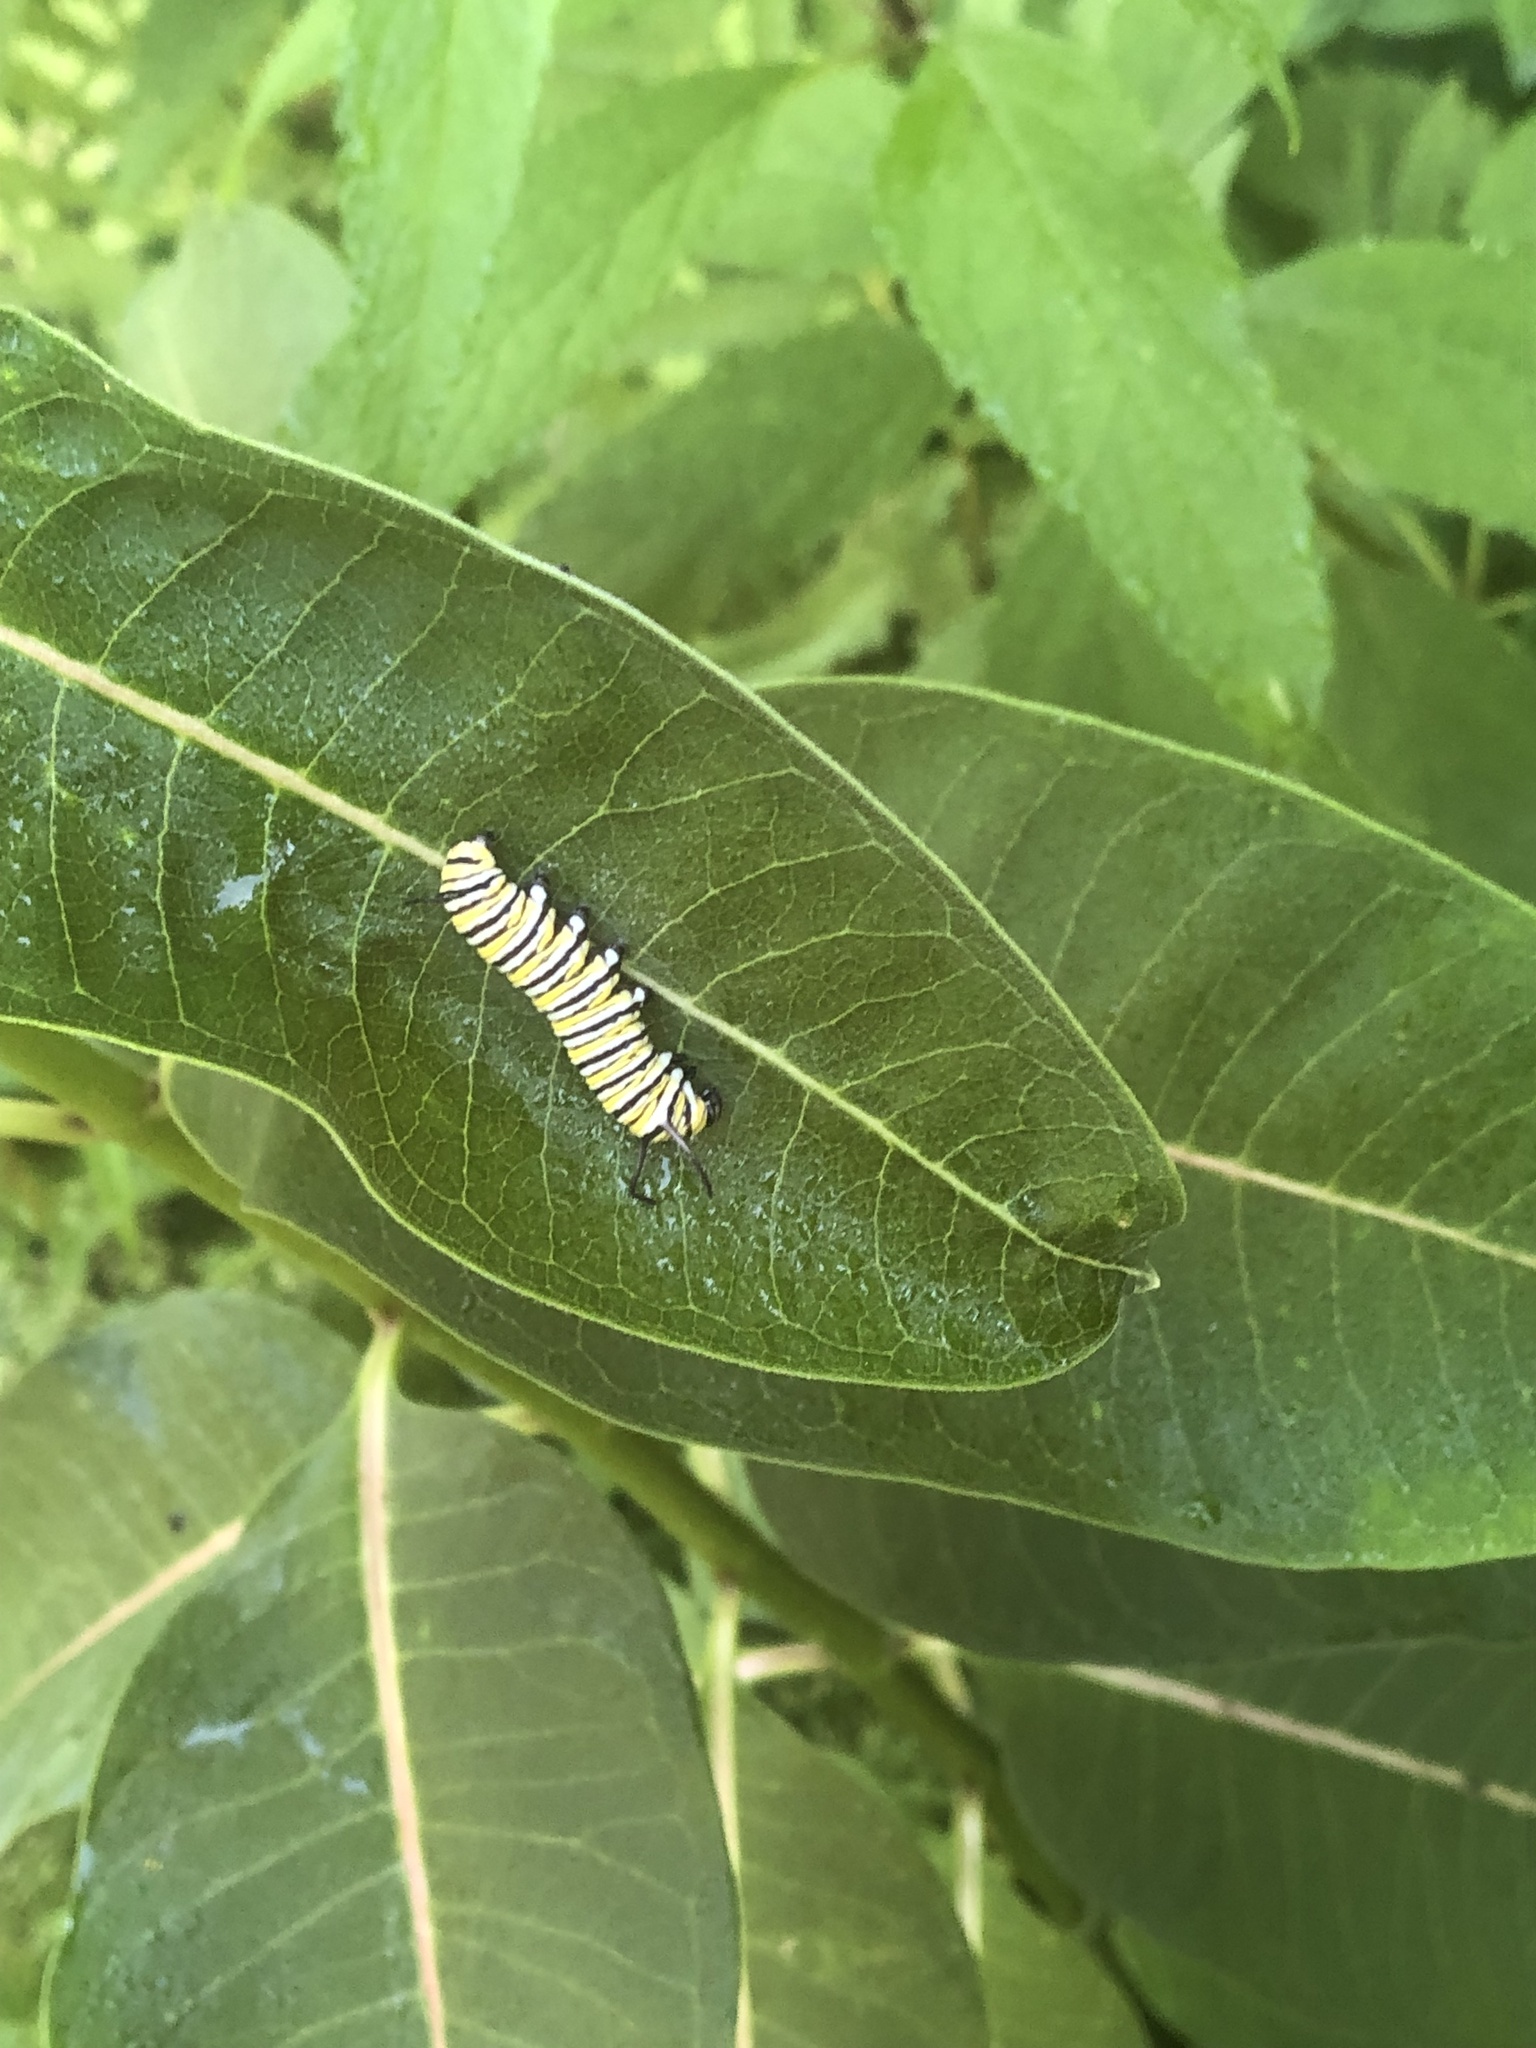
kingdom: Animalia
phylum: Arthropoda
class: Insecta
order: Lepidoptera
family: Nymphalidae
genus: Danaus
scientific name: Danaus plexippus
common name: Monarch
